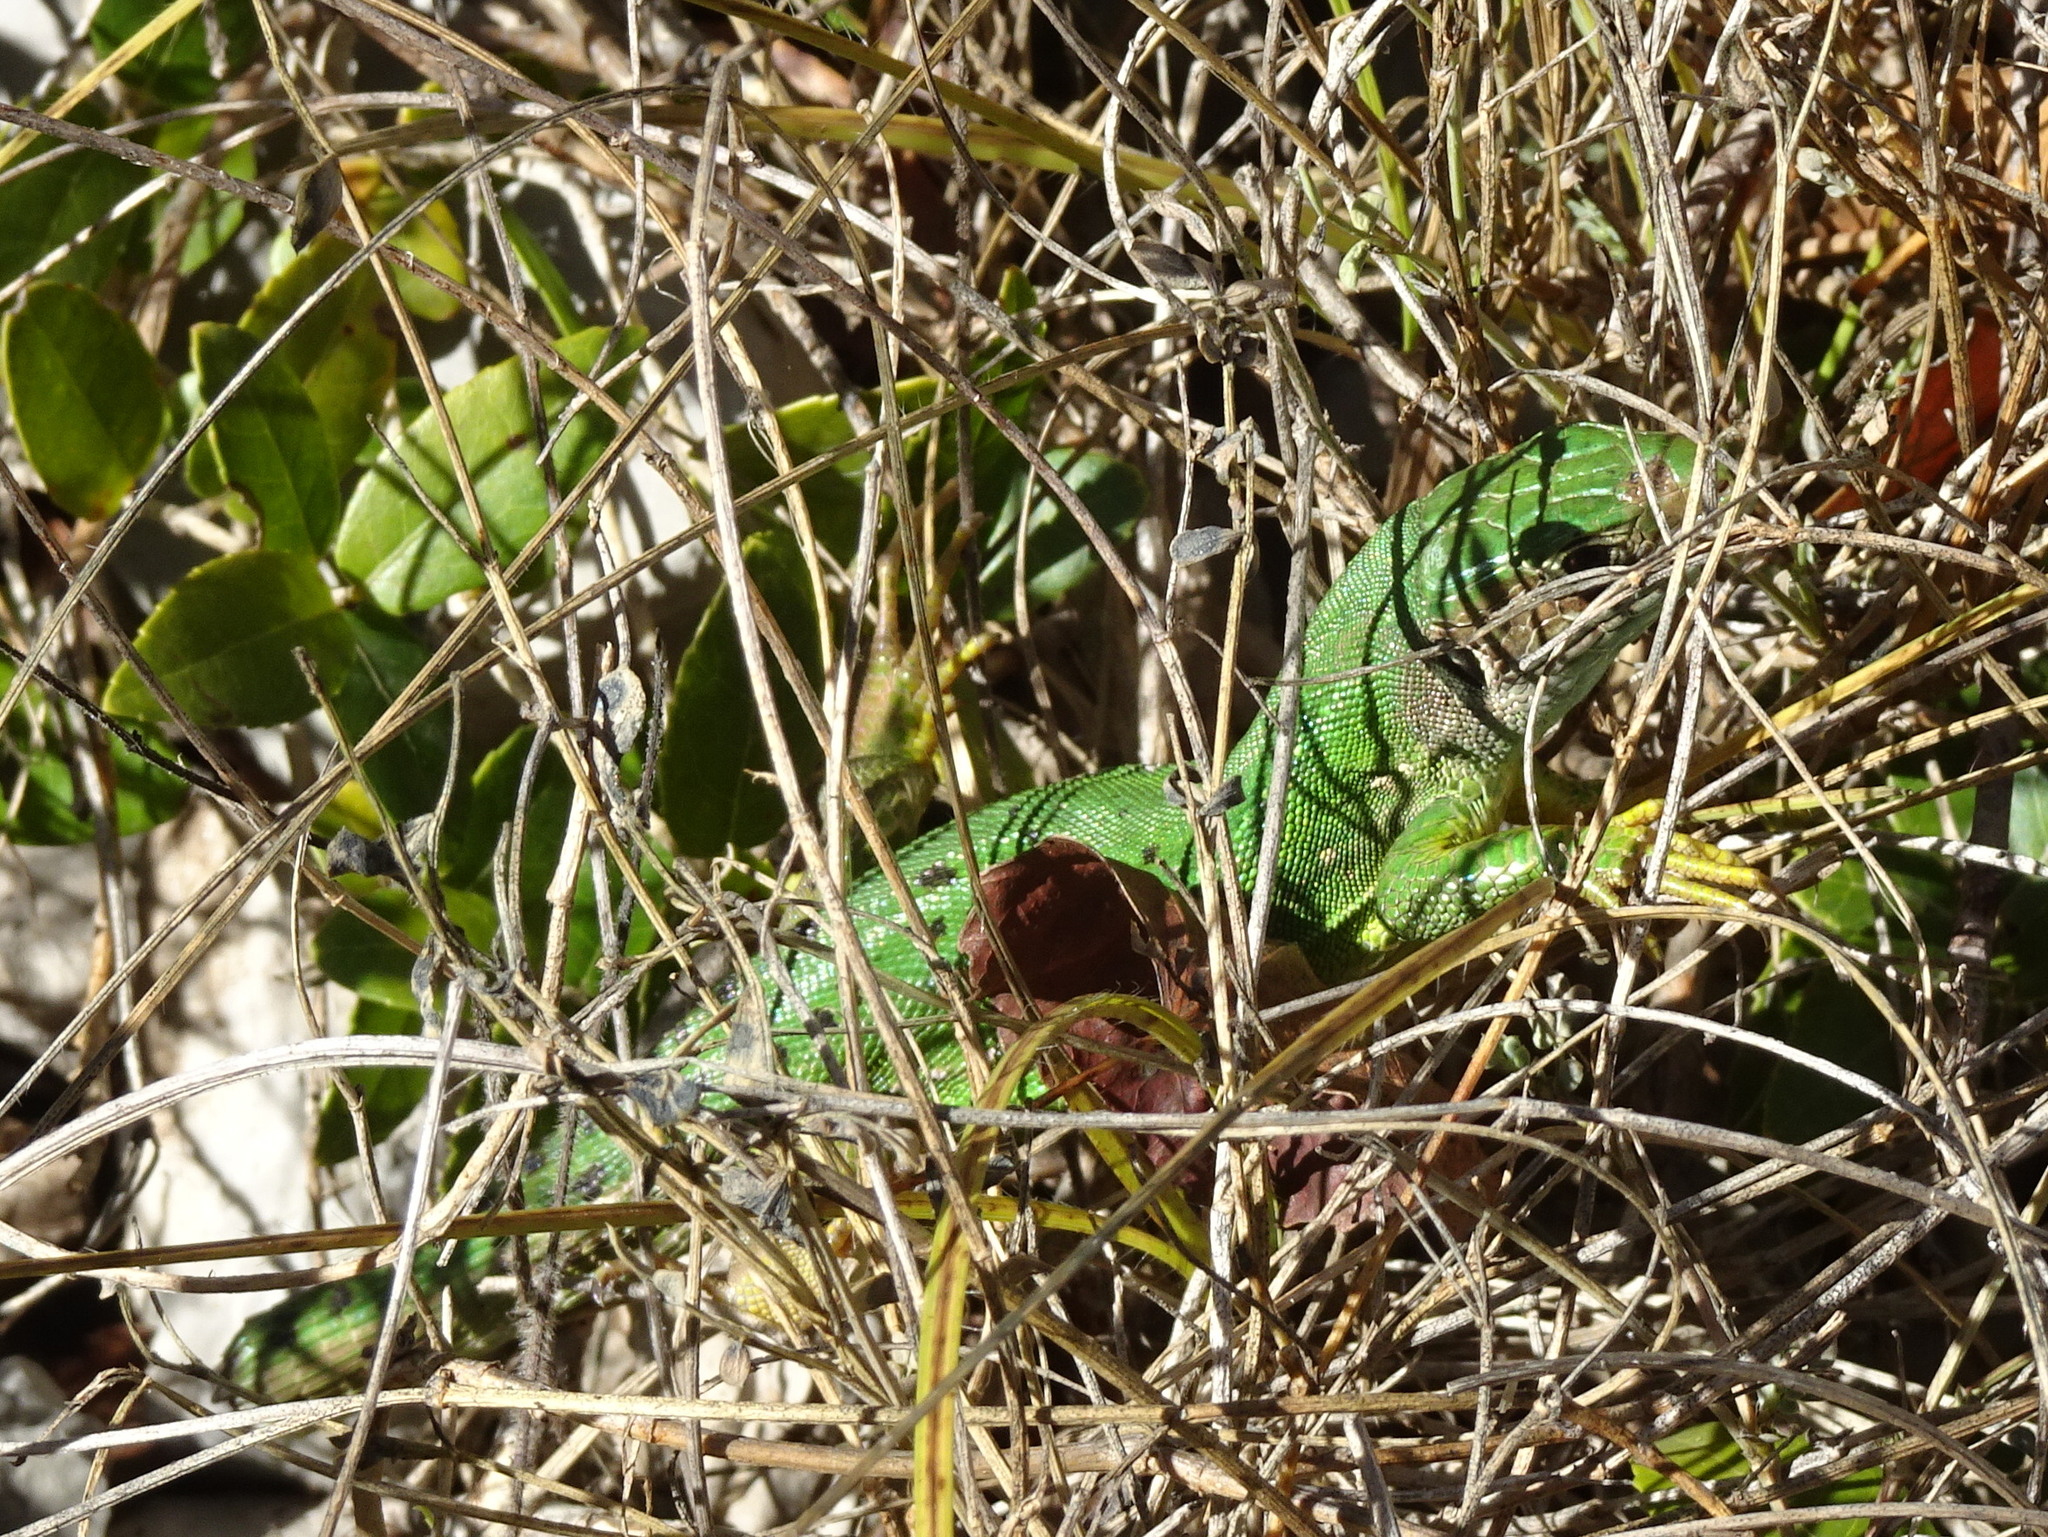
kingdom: Animalia
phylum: Chordata
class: Squamata
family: Lacertidae
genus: Lacerta
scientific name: Lacerta bilineata
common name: Western green lizard
